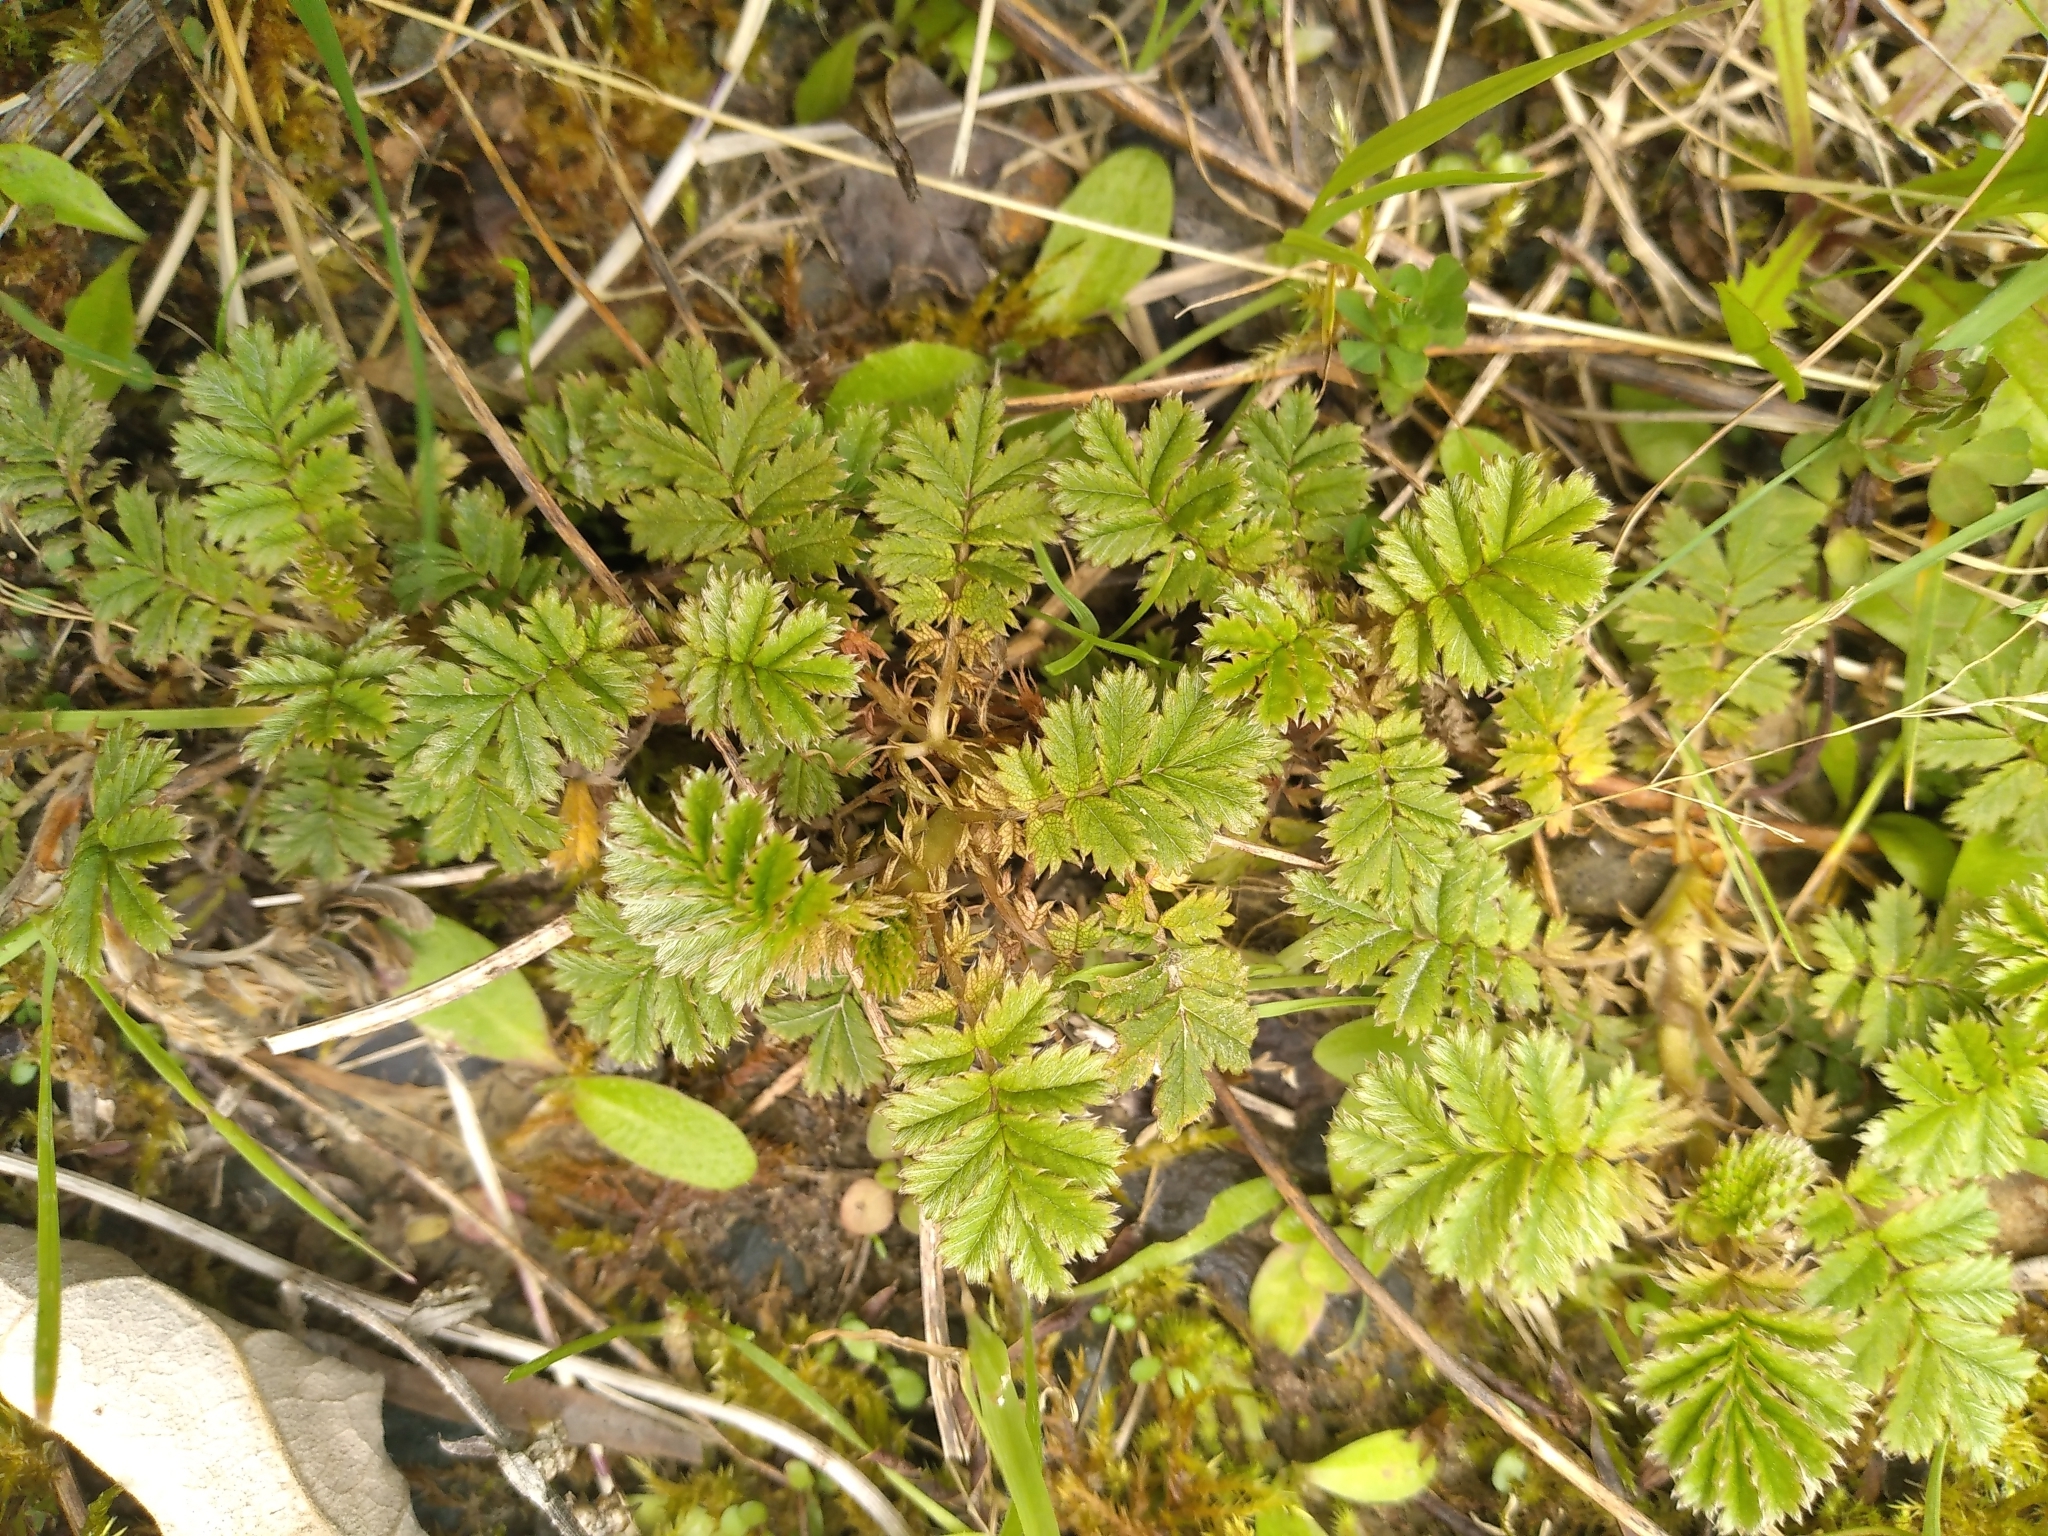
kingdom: Plantae
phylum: Tracheophyta
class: Magnoliopsida
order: Rosales
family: Rosaceae
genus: Acaena
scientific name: Acaena anserinifolia
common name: Bronze pirri-pirri-bur
